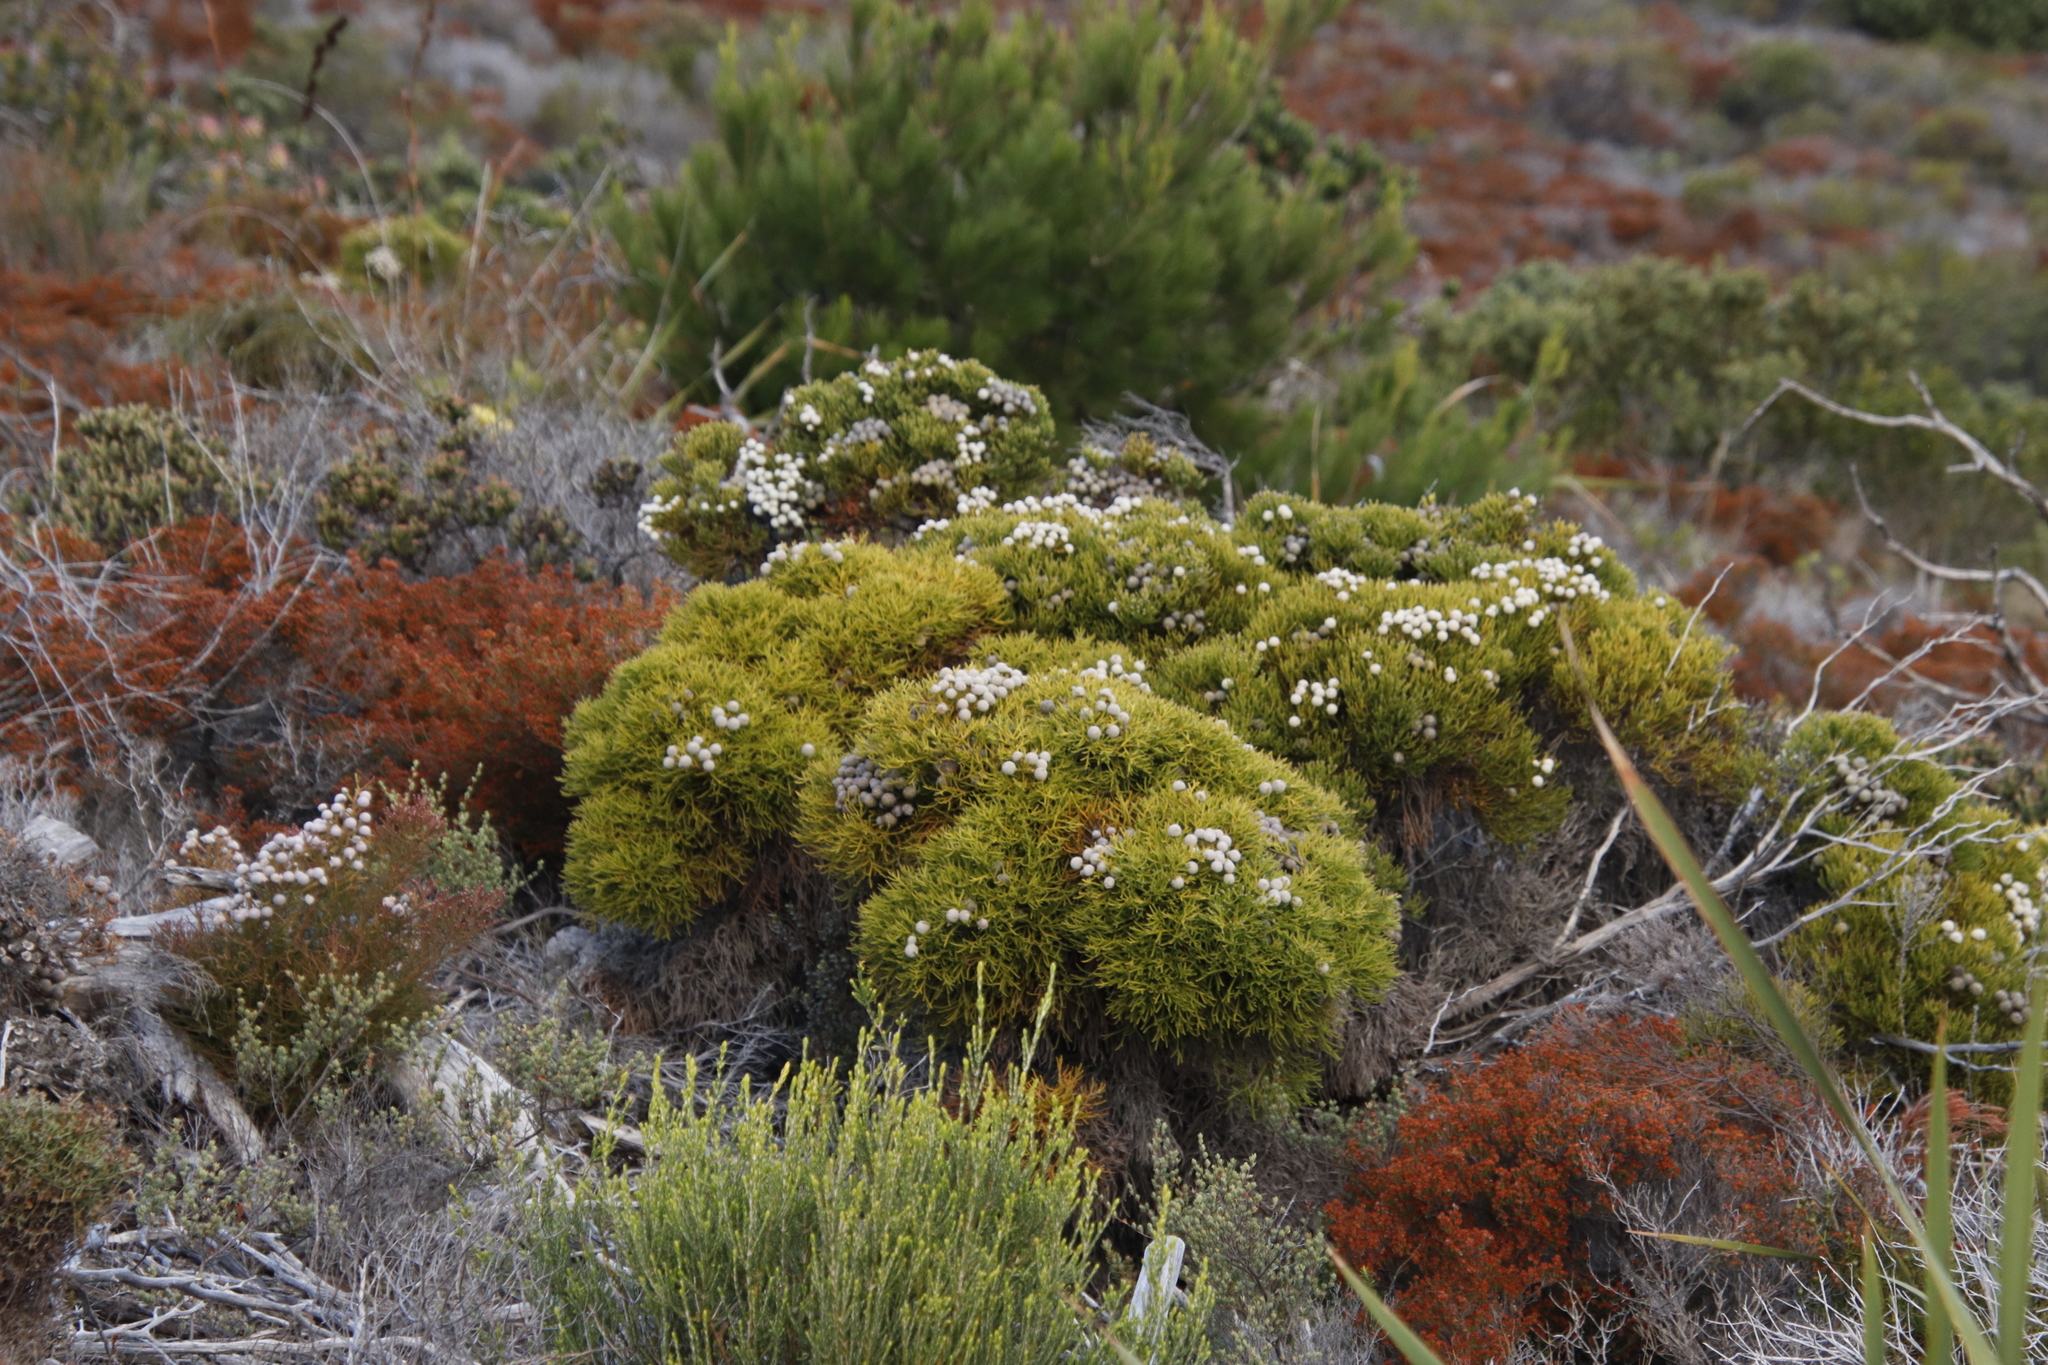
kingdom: Plantae
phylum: Tracheophyta
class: Magnoliopsida
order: Bruniales
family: Bruniaceae
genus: Brunia
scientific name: Brunia noduliflora
